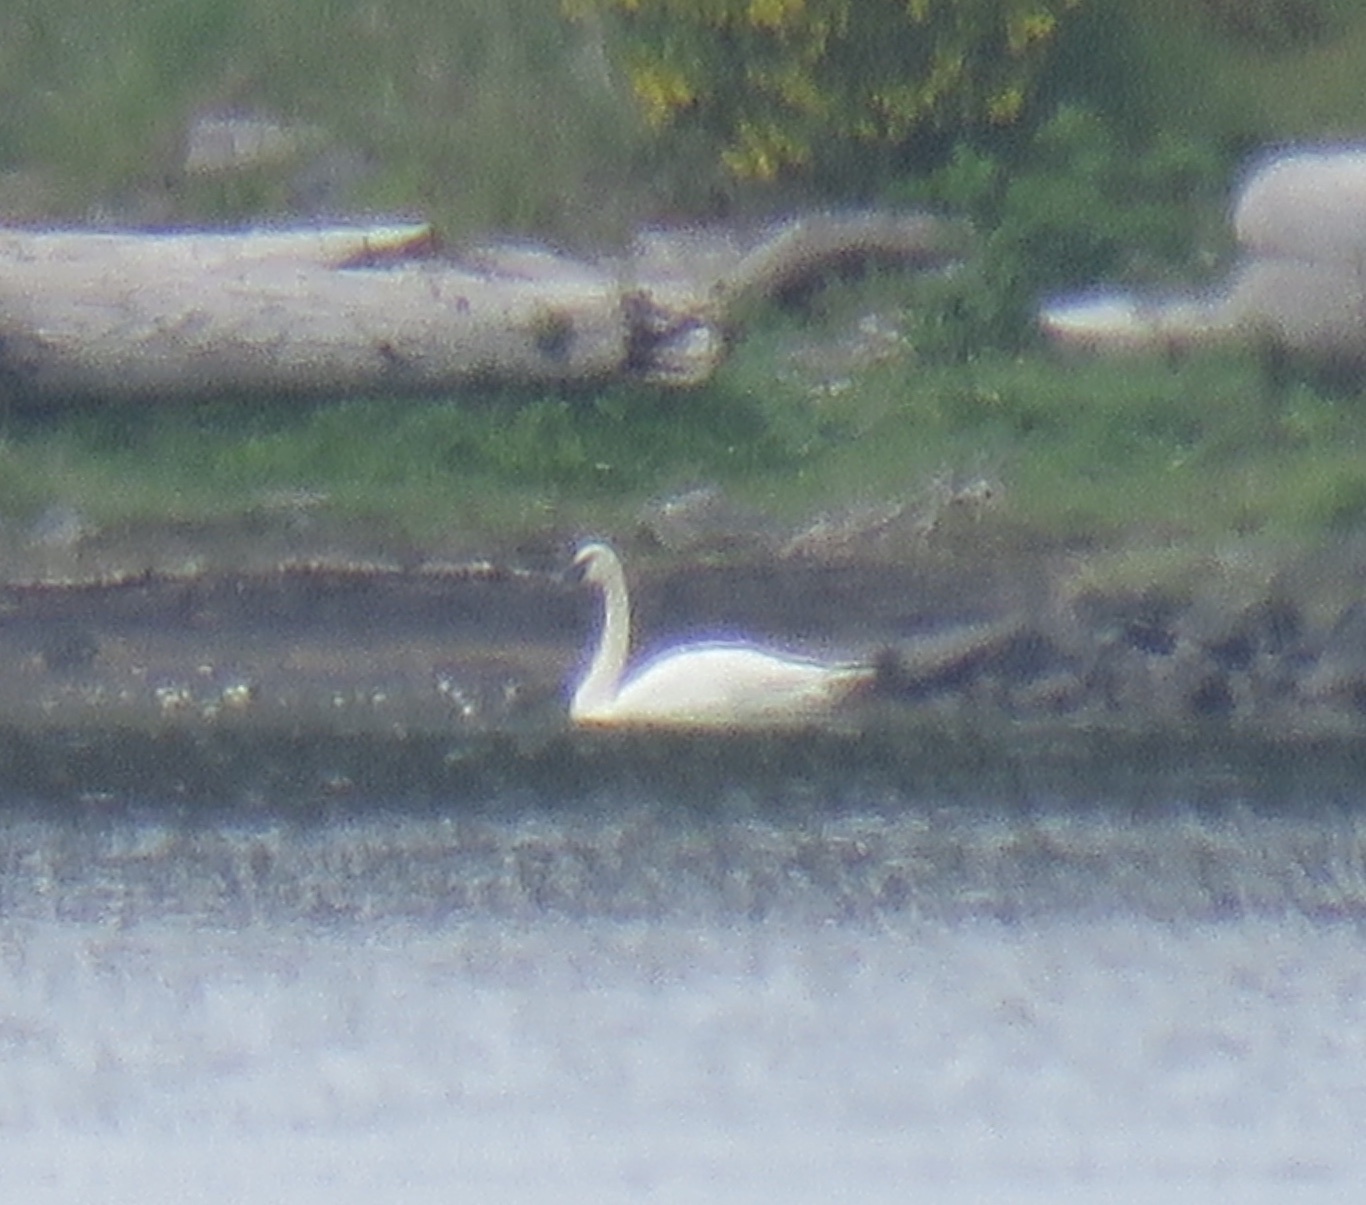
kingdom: Animalia
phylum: Chordata
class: Aves
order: Anseriformes
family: Anatidae
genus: Cygnus
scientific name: Cygnus buccinator
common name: Trumpeter swan
